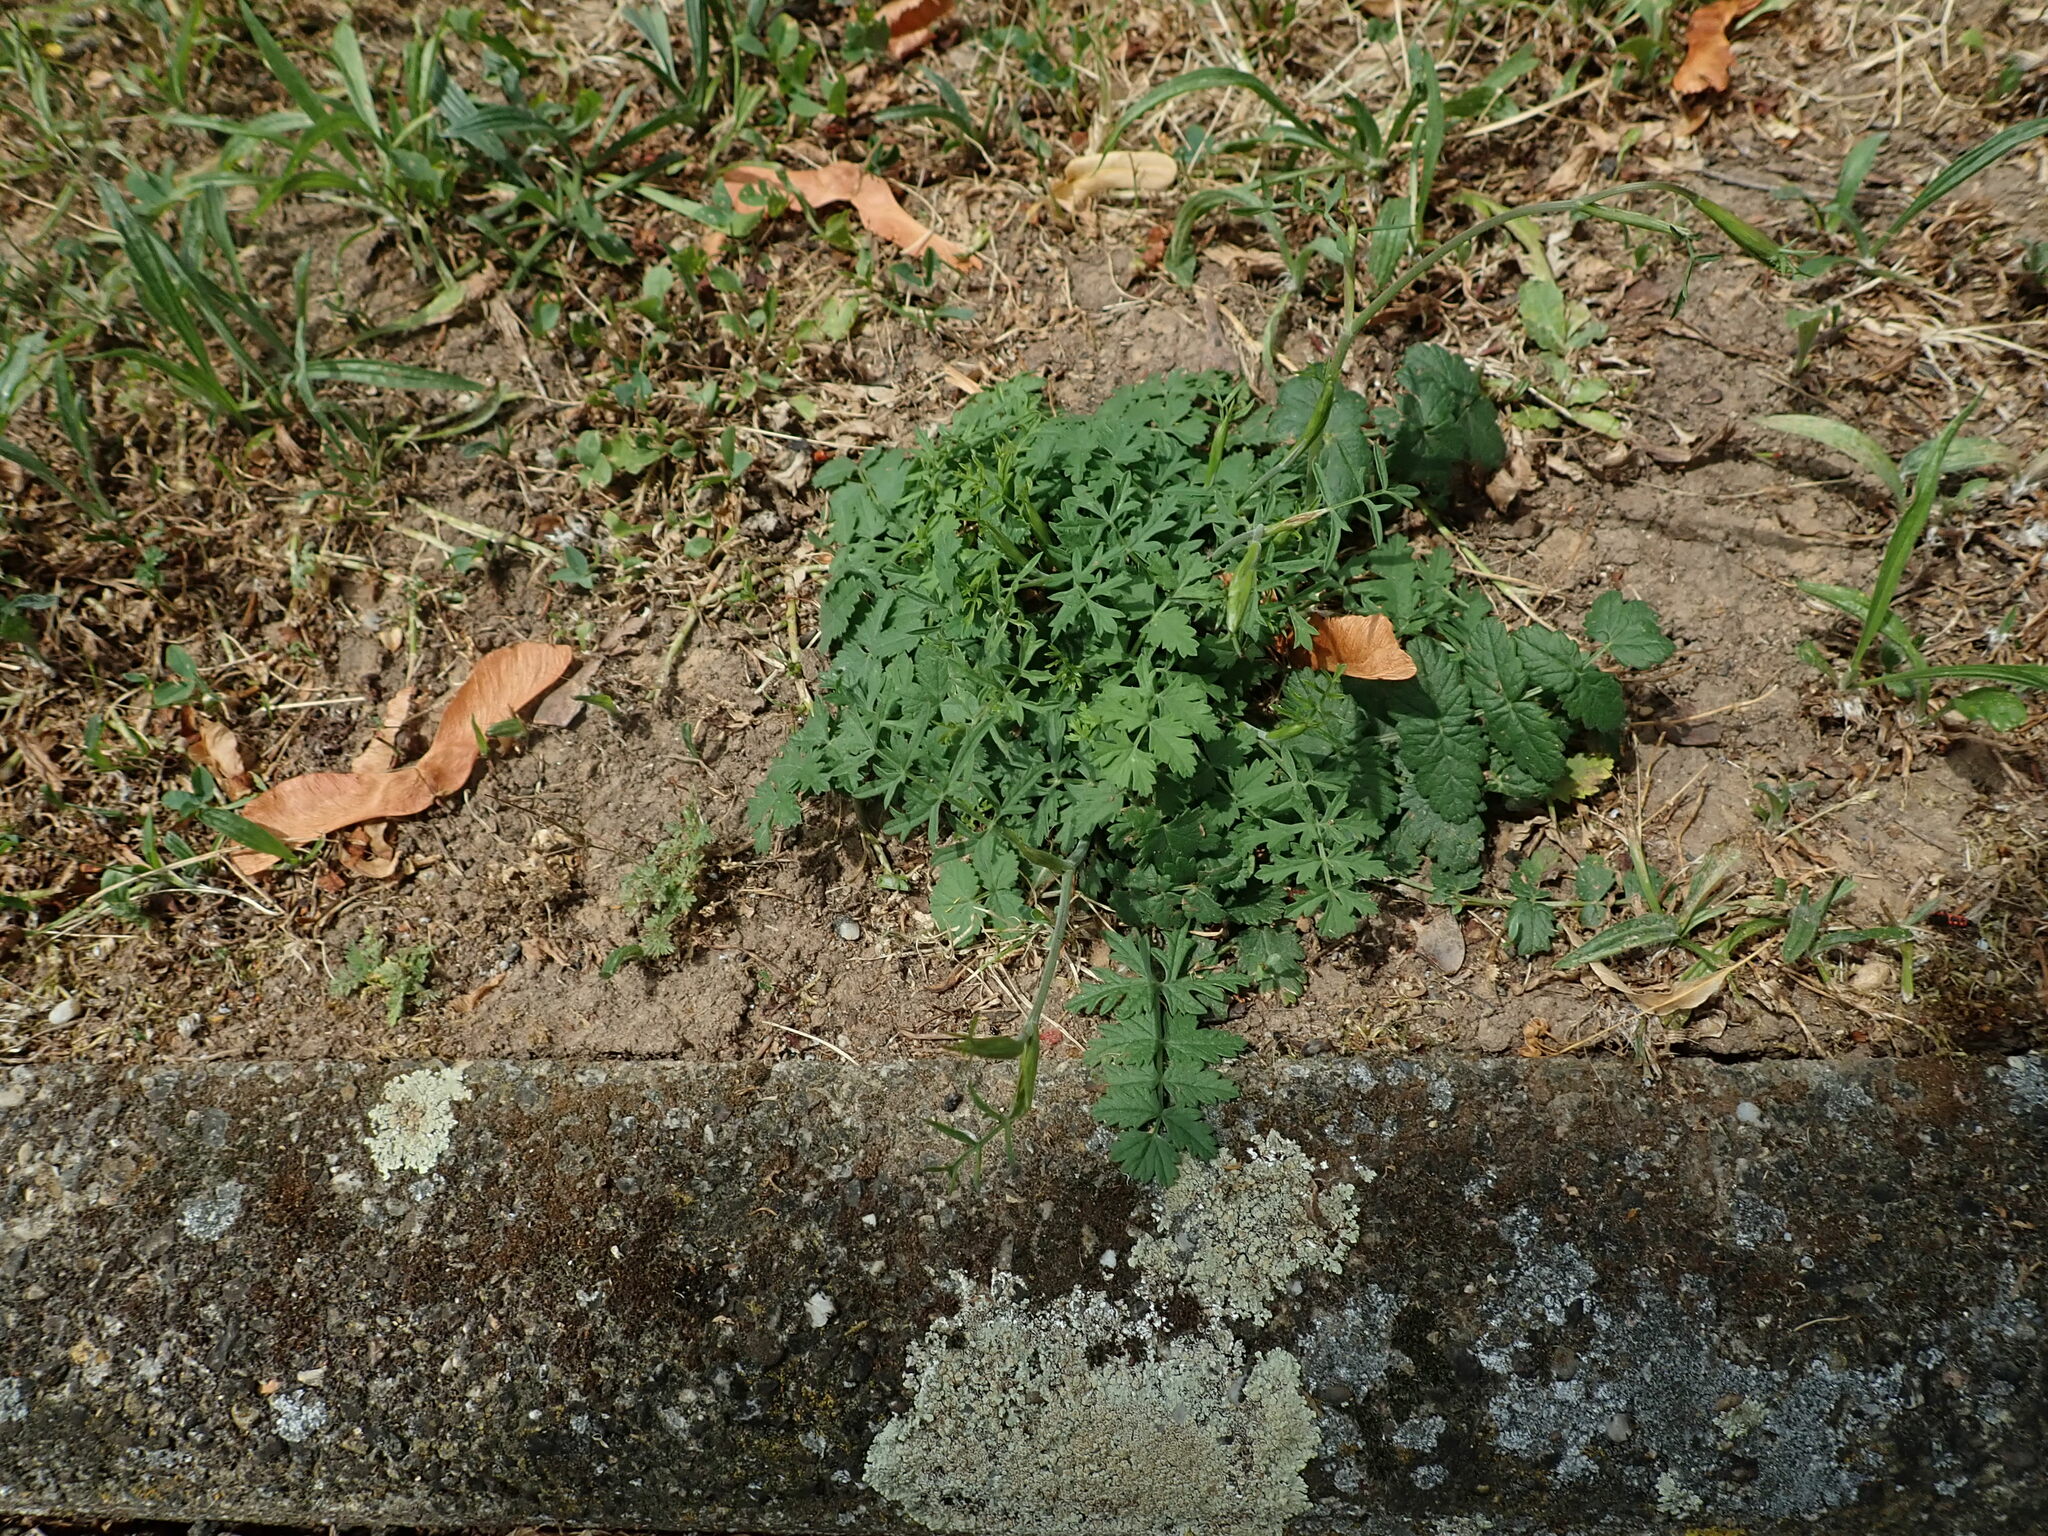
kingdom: Plantae
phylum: Tracheophyta
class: Magnoliopsida
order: Apiales
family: Apiaceae
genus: Pimpinella
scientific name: Pimpinella saxifraga
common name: Burnet-saxifrage
